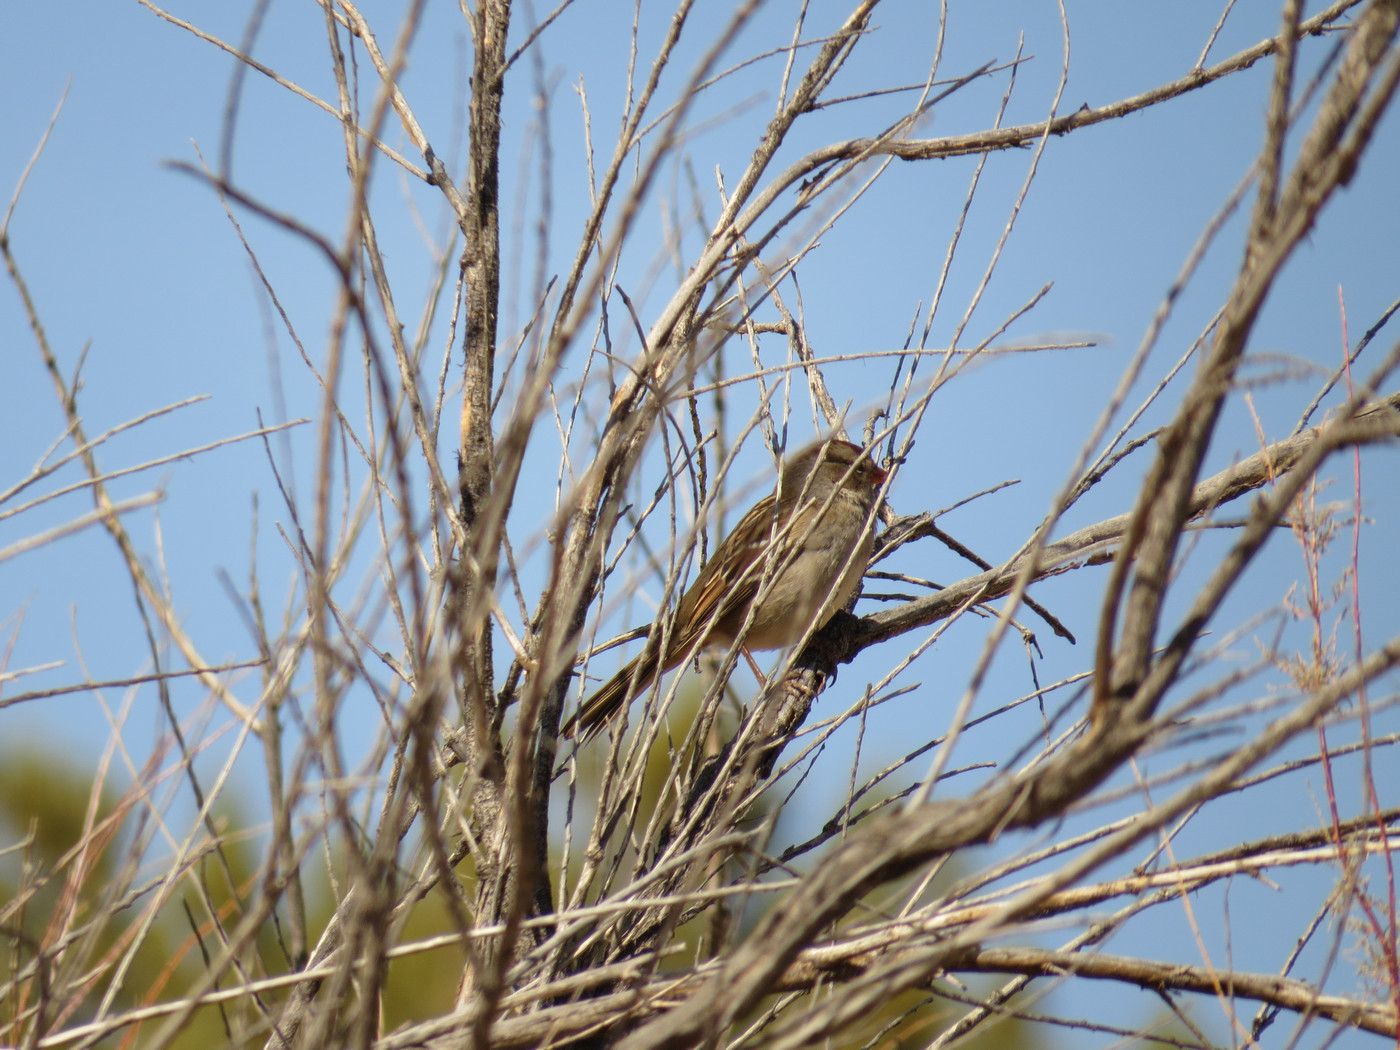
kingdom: Animalia
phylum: Chordata
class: Aves
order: Passeriformes
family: Passerellidae
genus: Zonotrichia
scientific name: Zonotrichia leucophrys
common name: White-crowned sparrow
